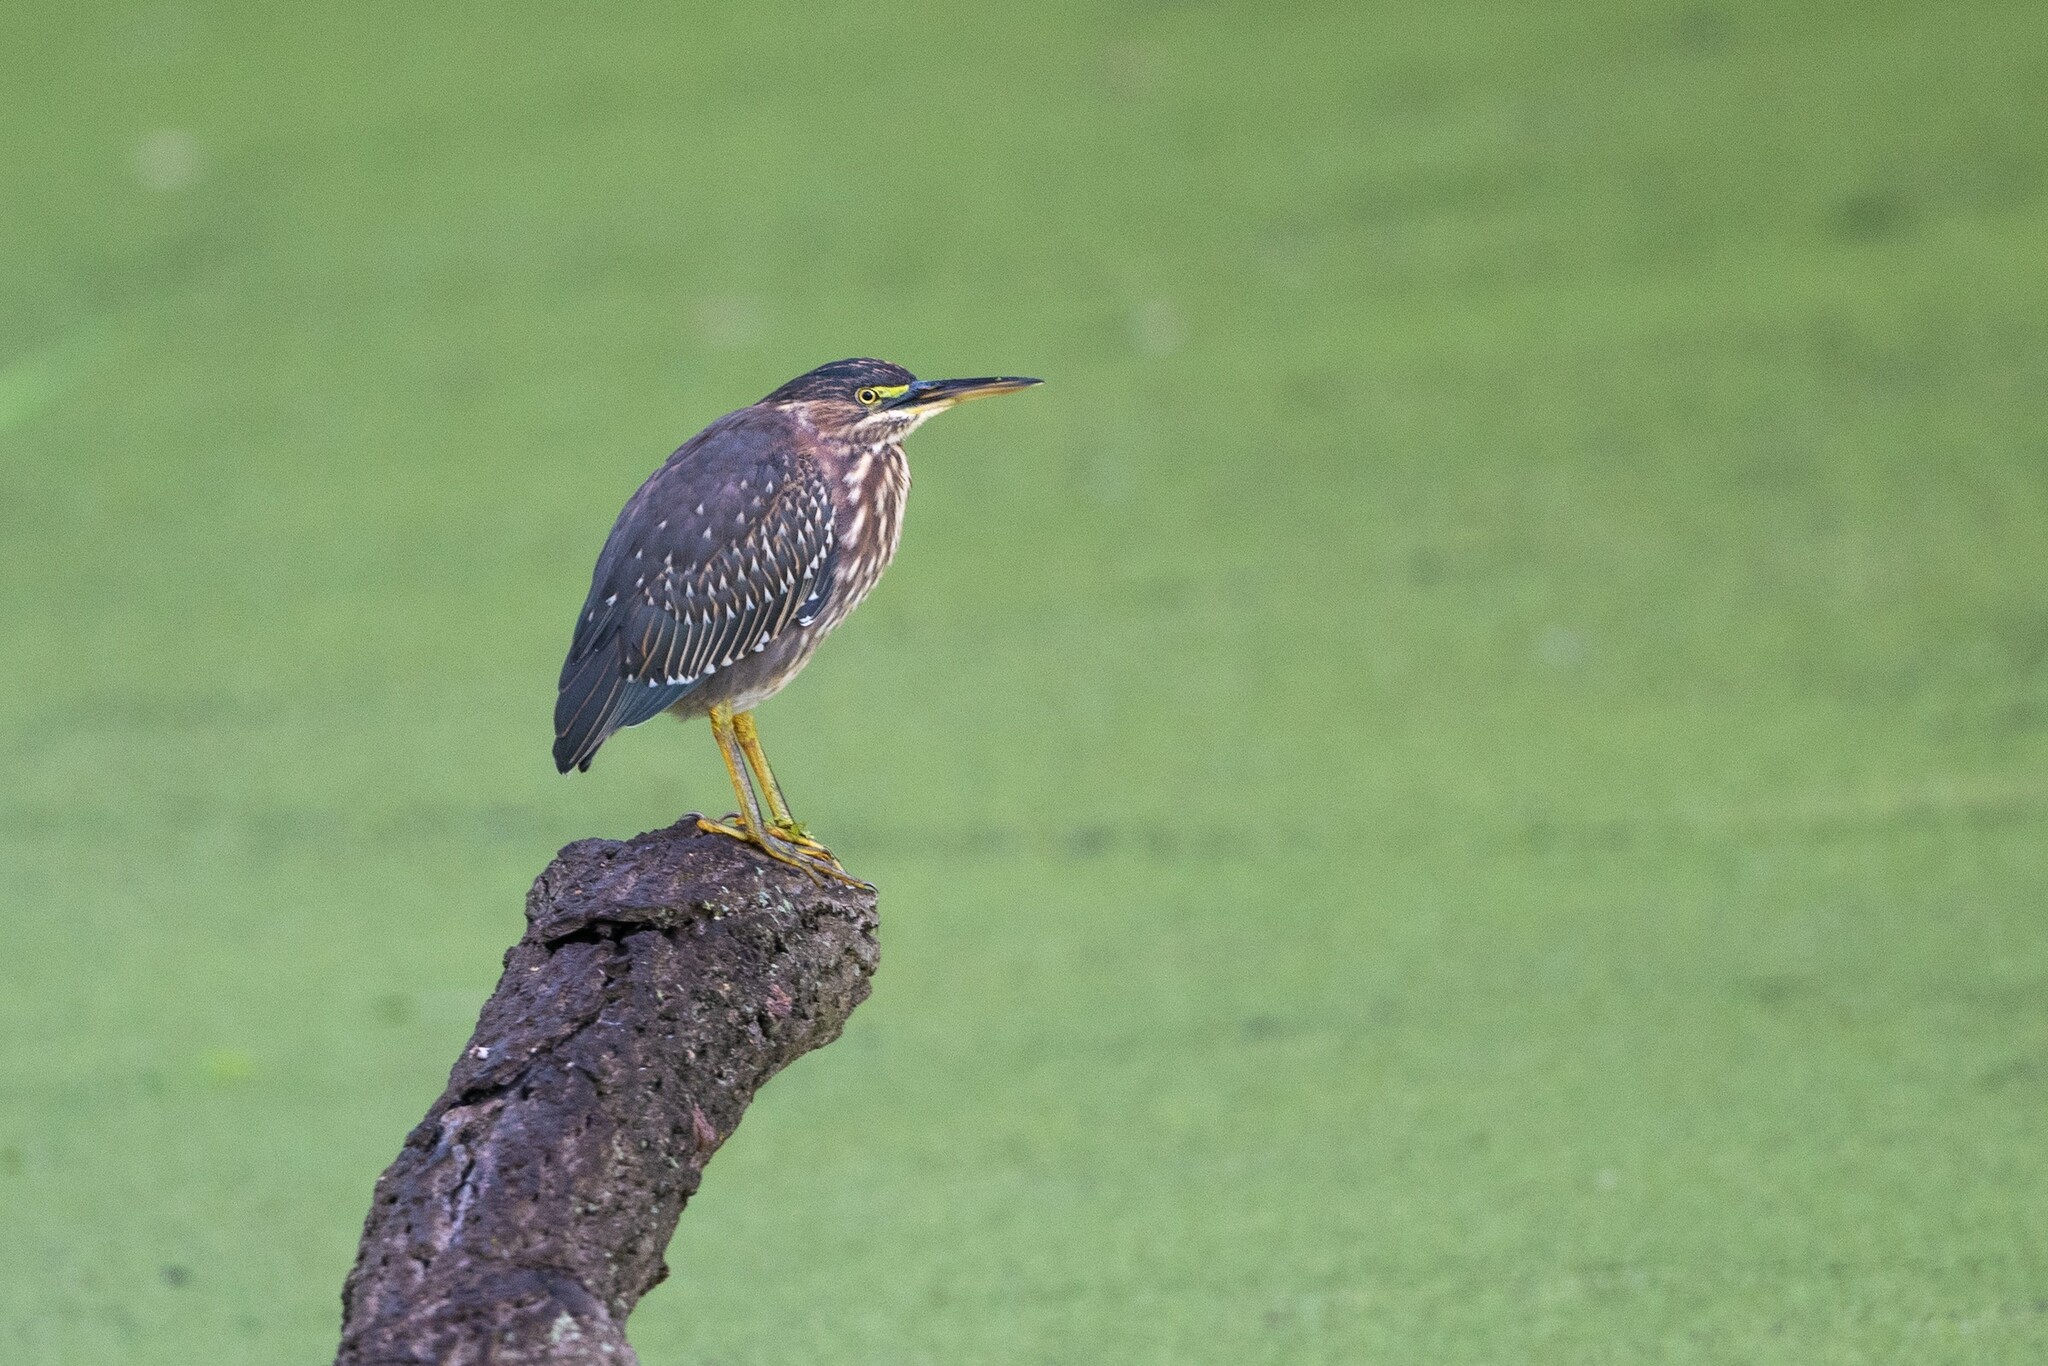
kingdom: Animalia
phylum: Chordata
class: Aves
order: Pelecaniformes
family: Ardeidae
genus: Butorides
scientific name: Butorides virescens
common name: Green heron
